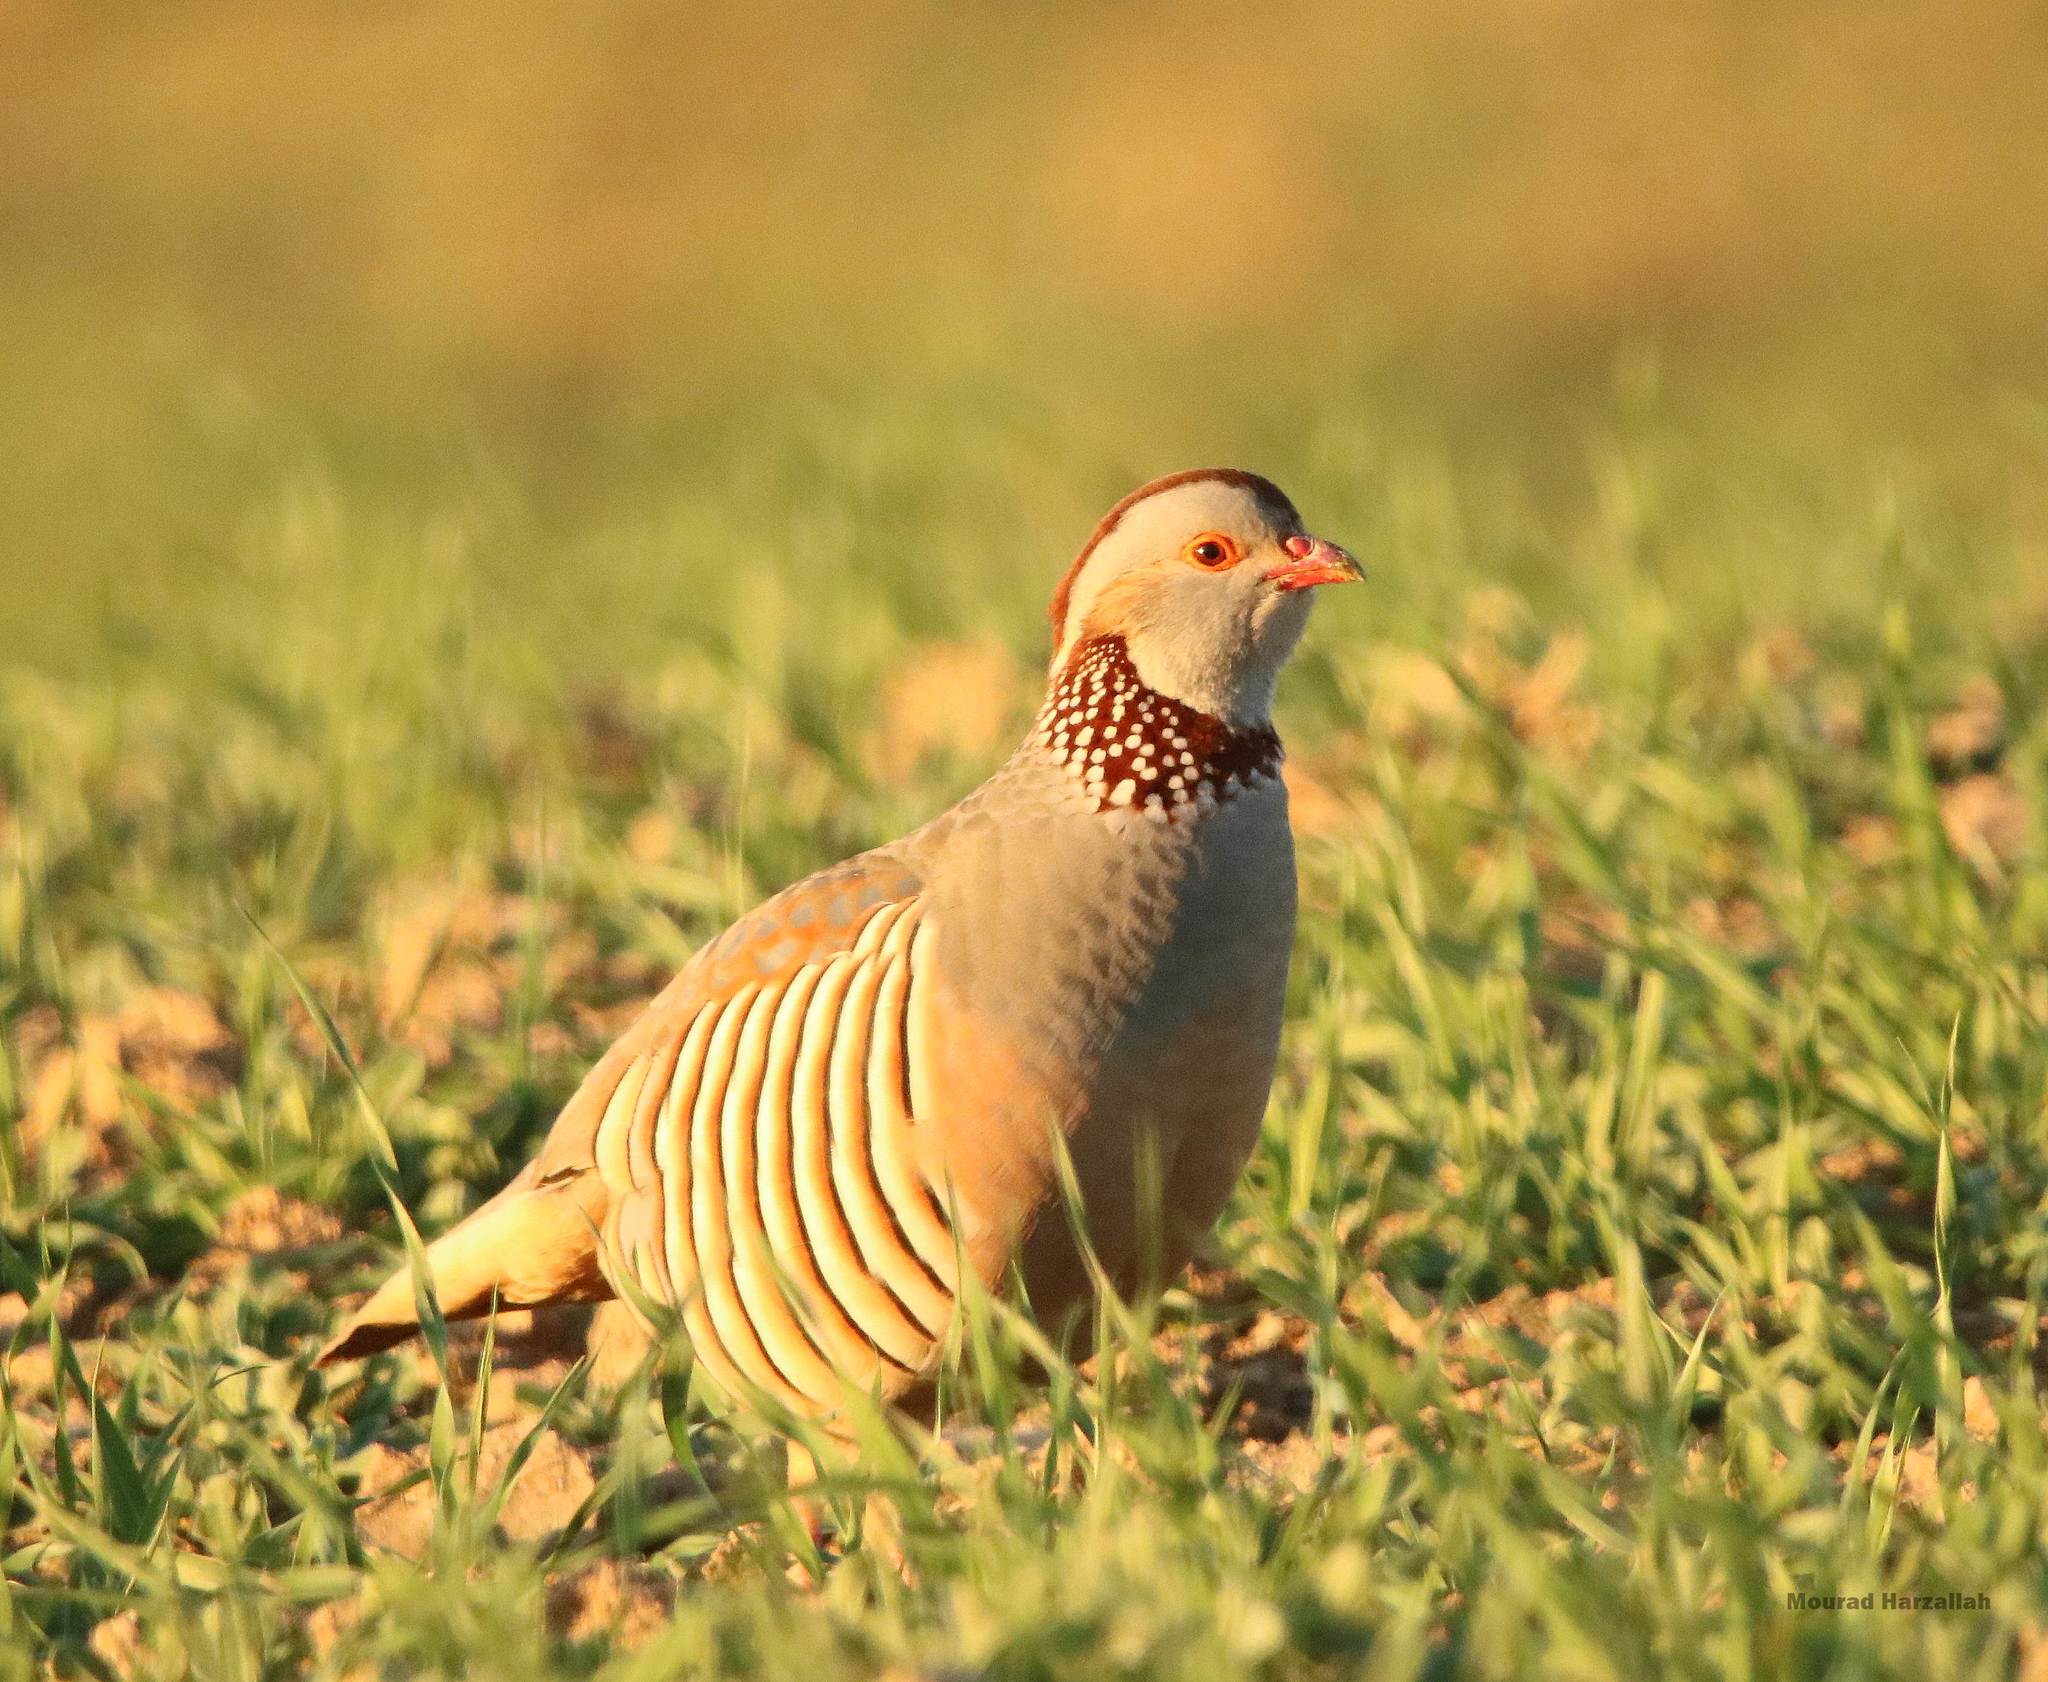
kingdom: Animalia
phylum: Chordata
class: Aves
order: Galliformes
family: Phasianidae
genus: Alectoris
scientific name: Alectoris barbara
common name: Barbary partridge
